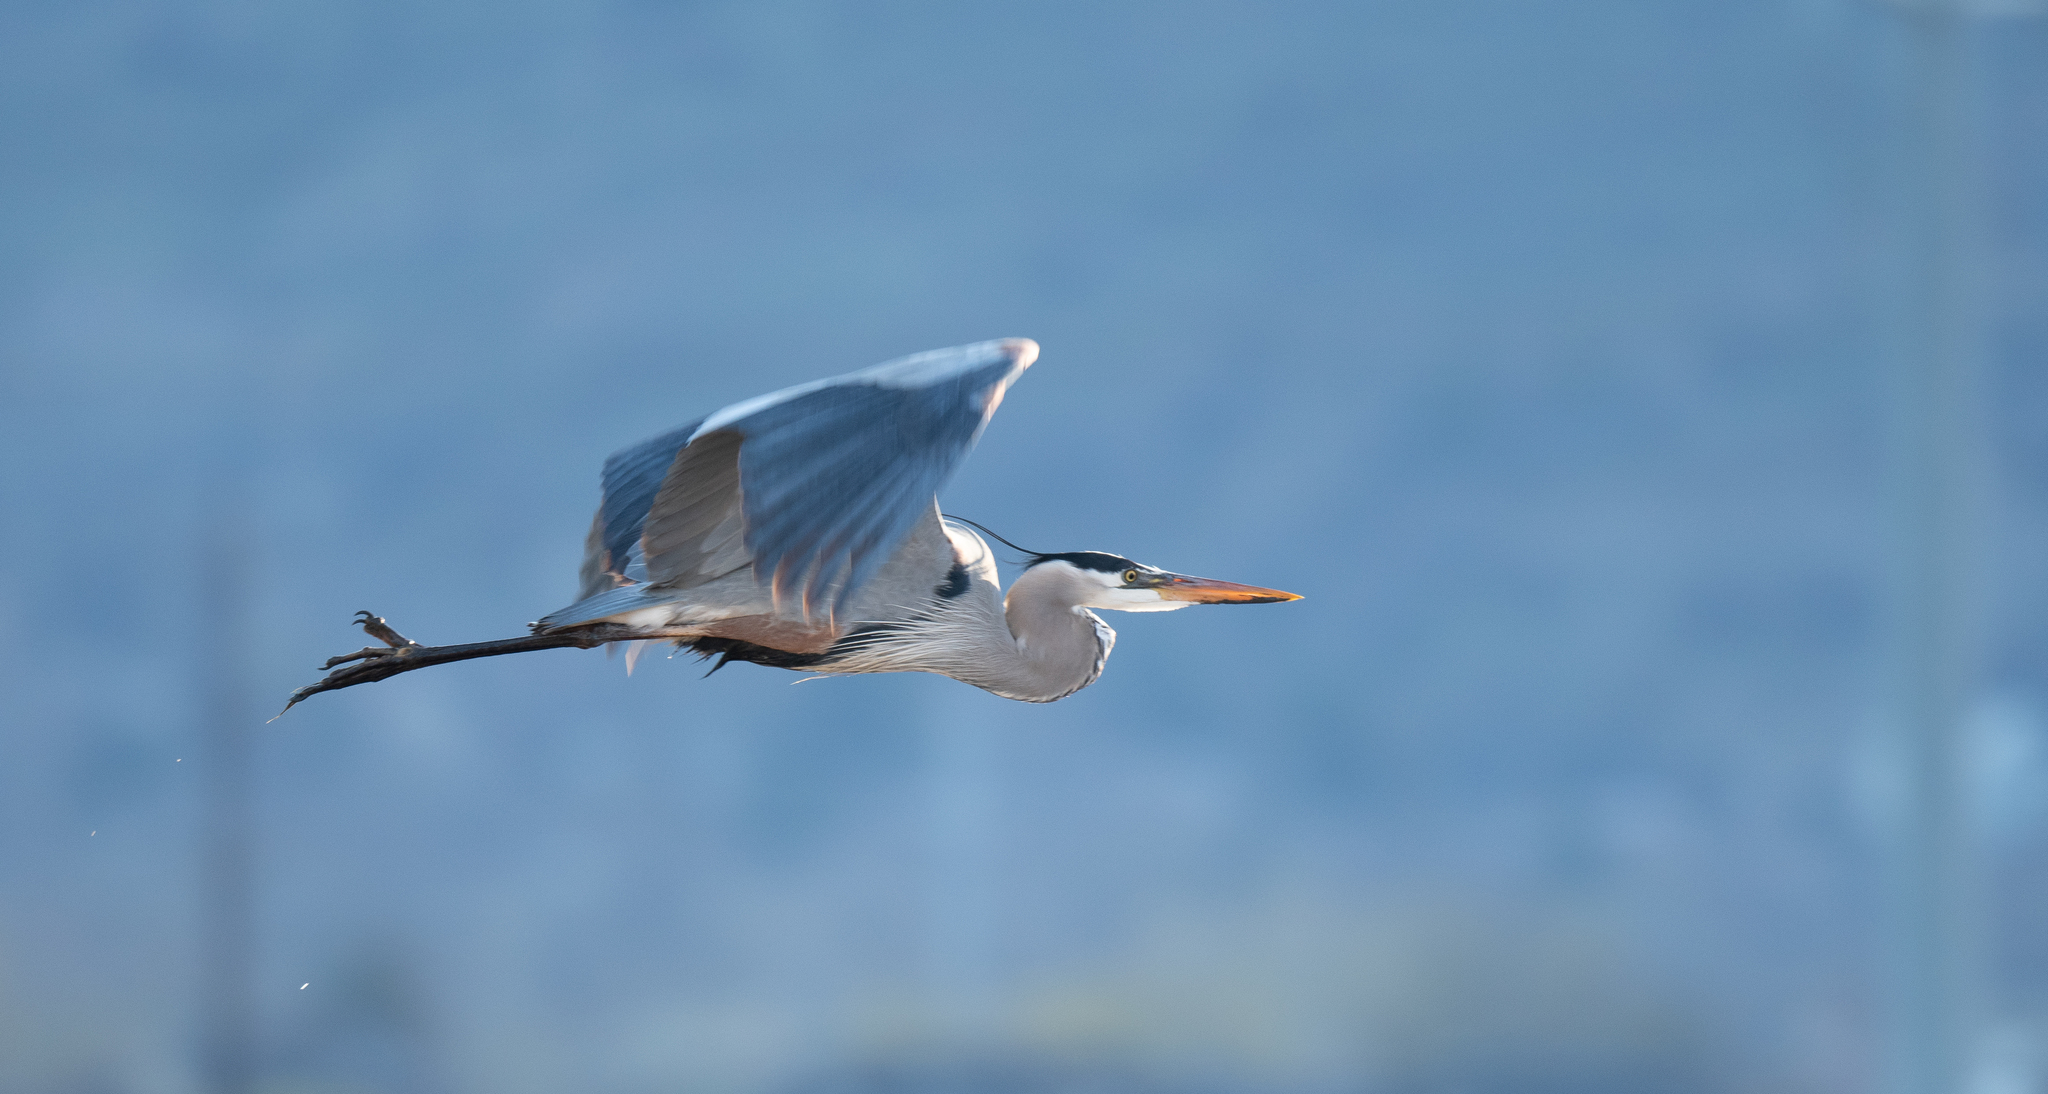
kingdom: Animalia
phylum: Chordata
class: Aves
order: Pelecaniformes
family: Ardeidae
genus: Ardea
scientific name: Ardea herodias
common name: Great blue heron
